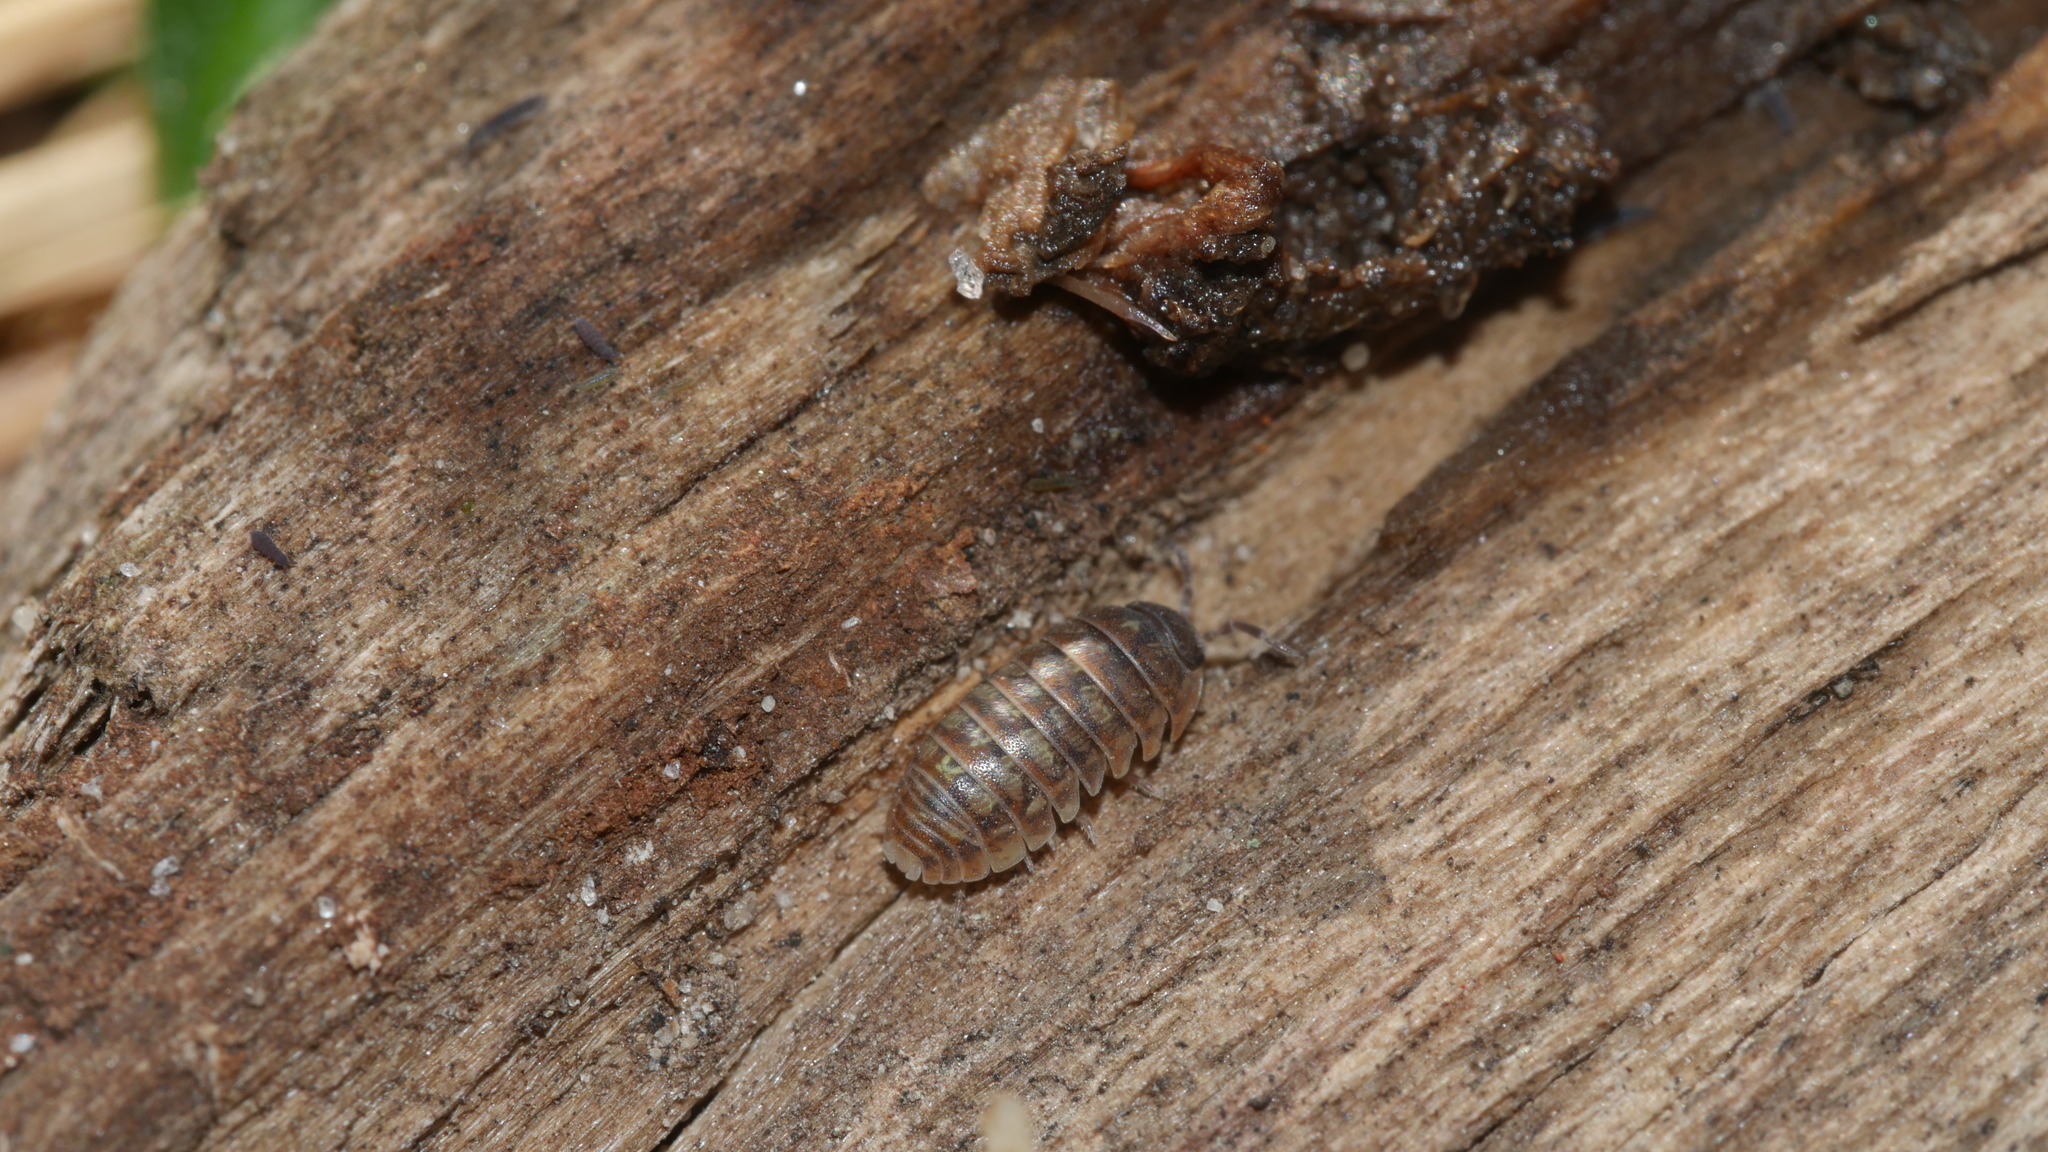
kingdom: Animalia
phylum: Arthropoda
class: Malacostraca
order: Isopoda
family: Armadillidiidae
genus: Armadillidium
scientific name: Armadillidium vulgare
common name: Common pill woodlouse
